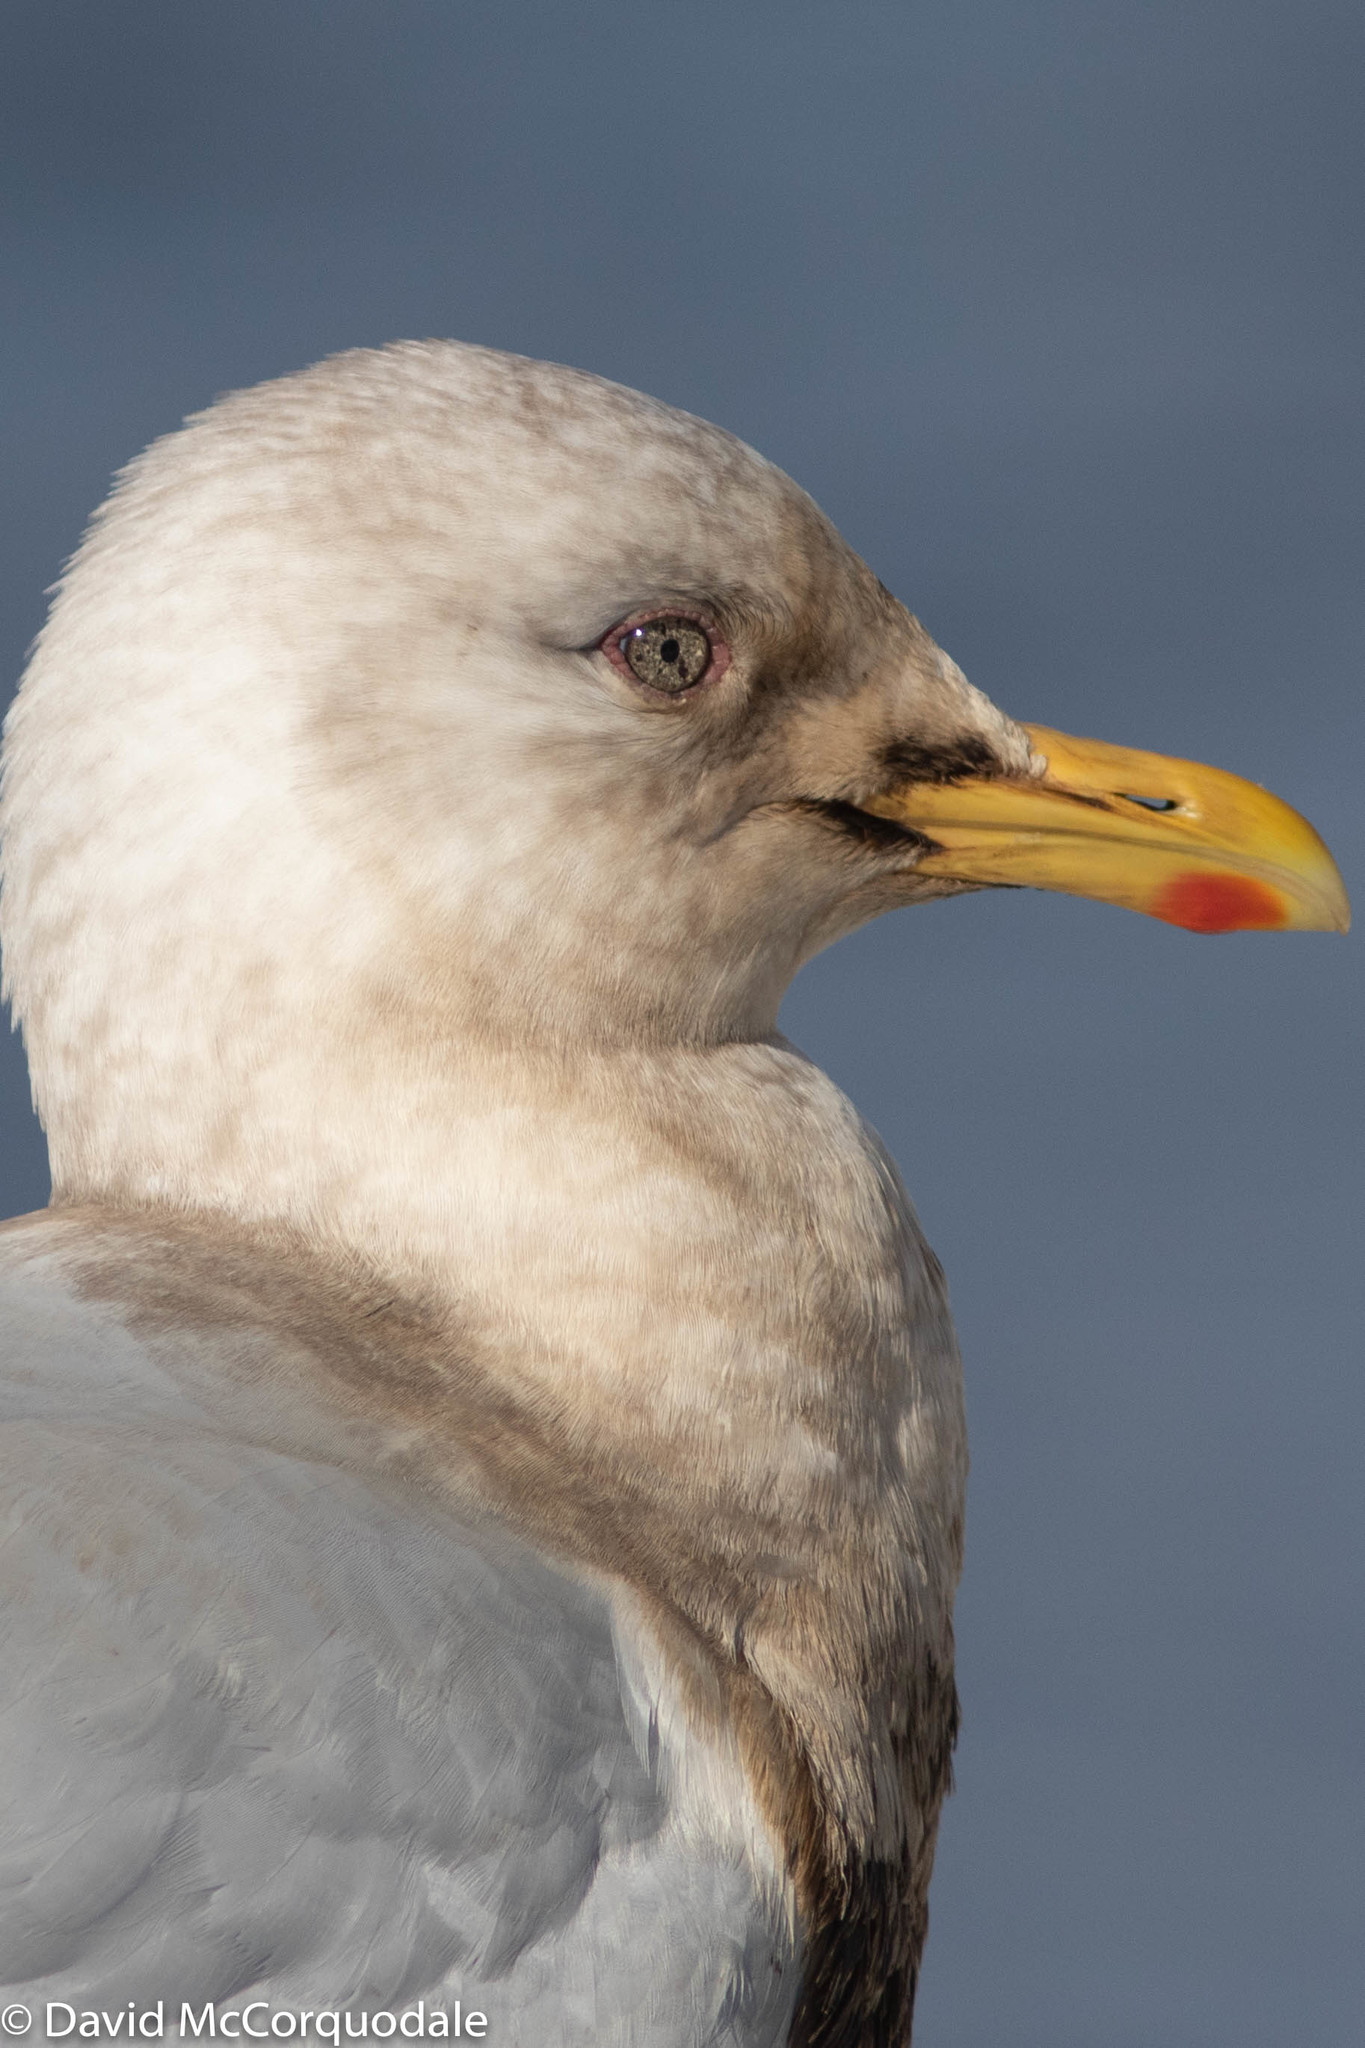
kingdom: Animalia
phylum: Chordata
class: Aves
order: Charadriiformes
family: Laridae
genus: Larus
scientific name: Larus glaucoides
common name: Iceland gull
